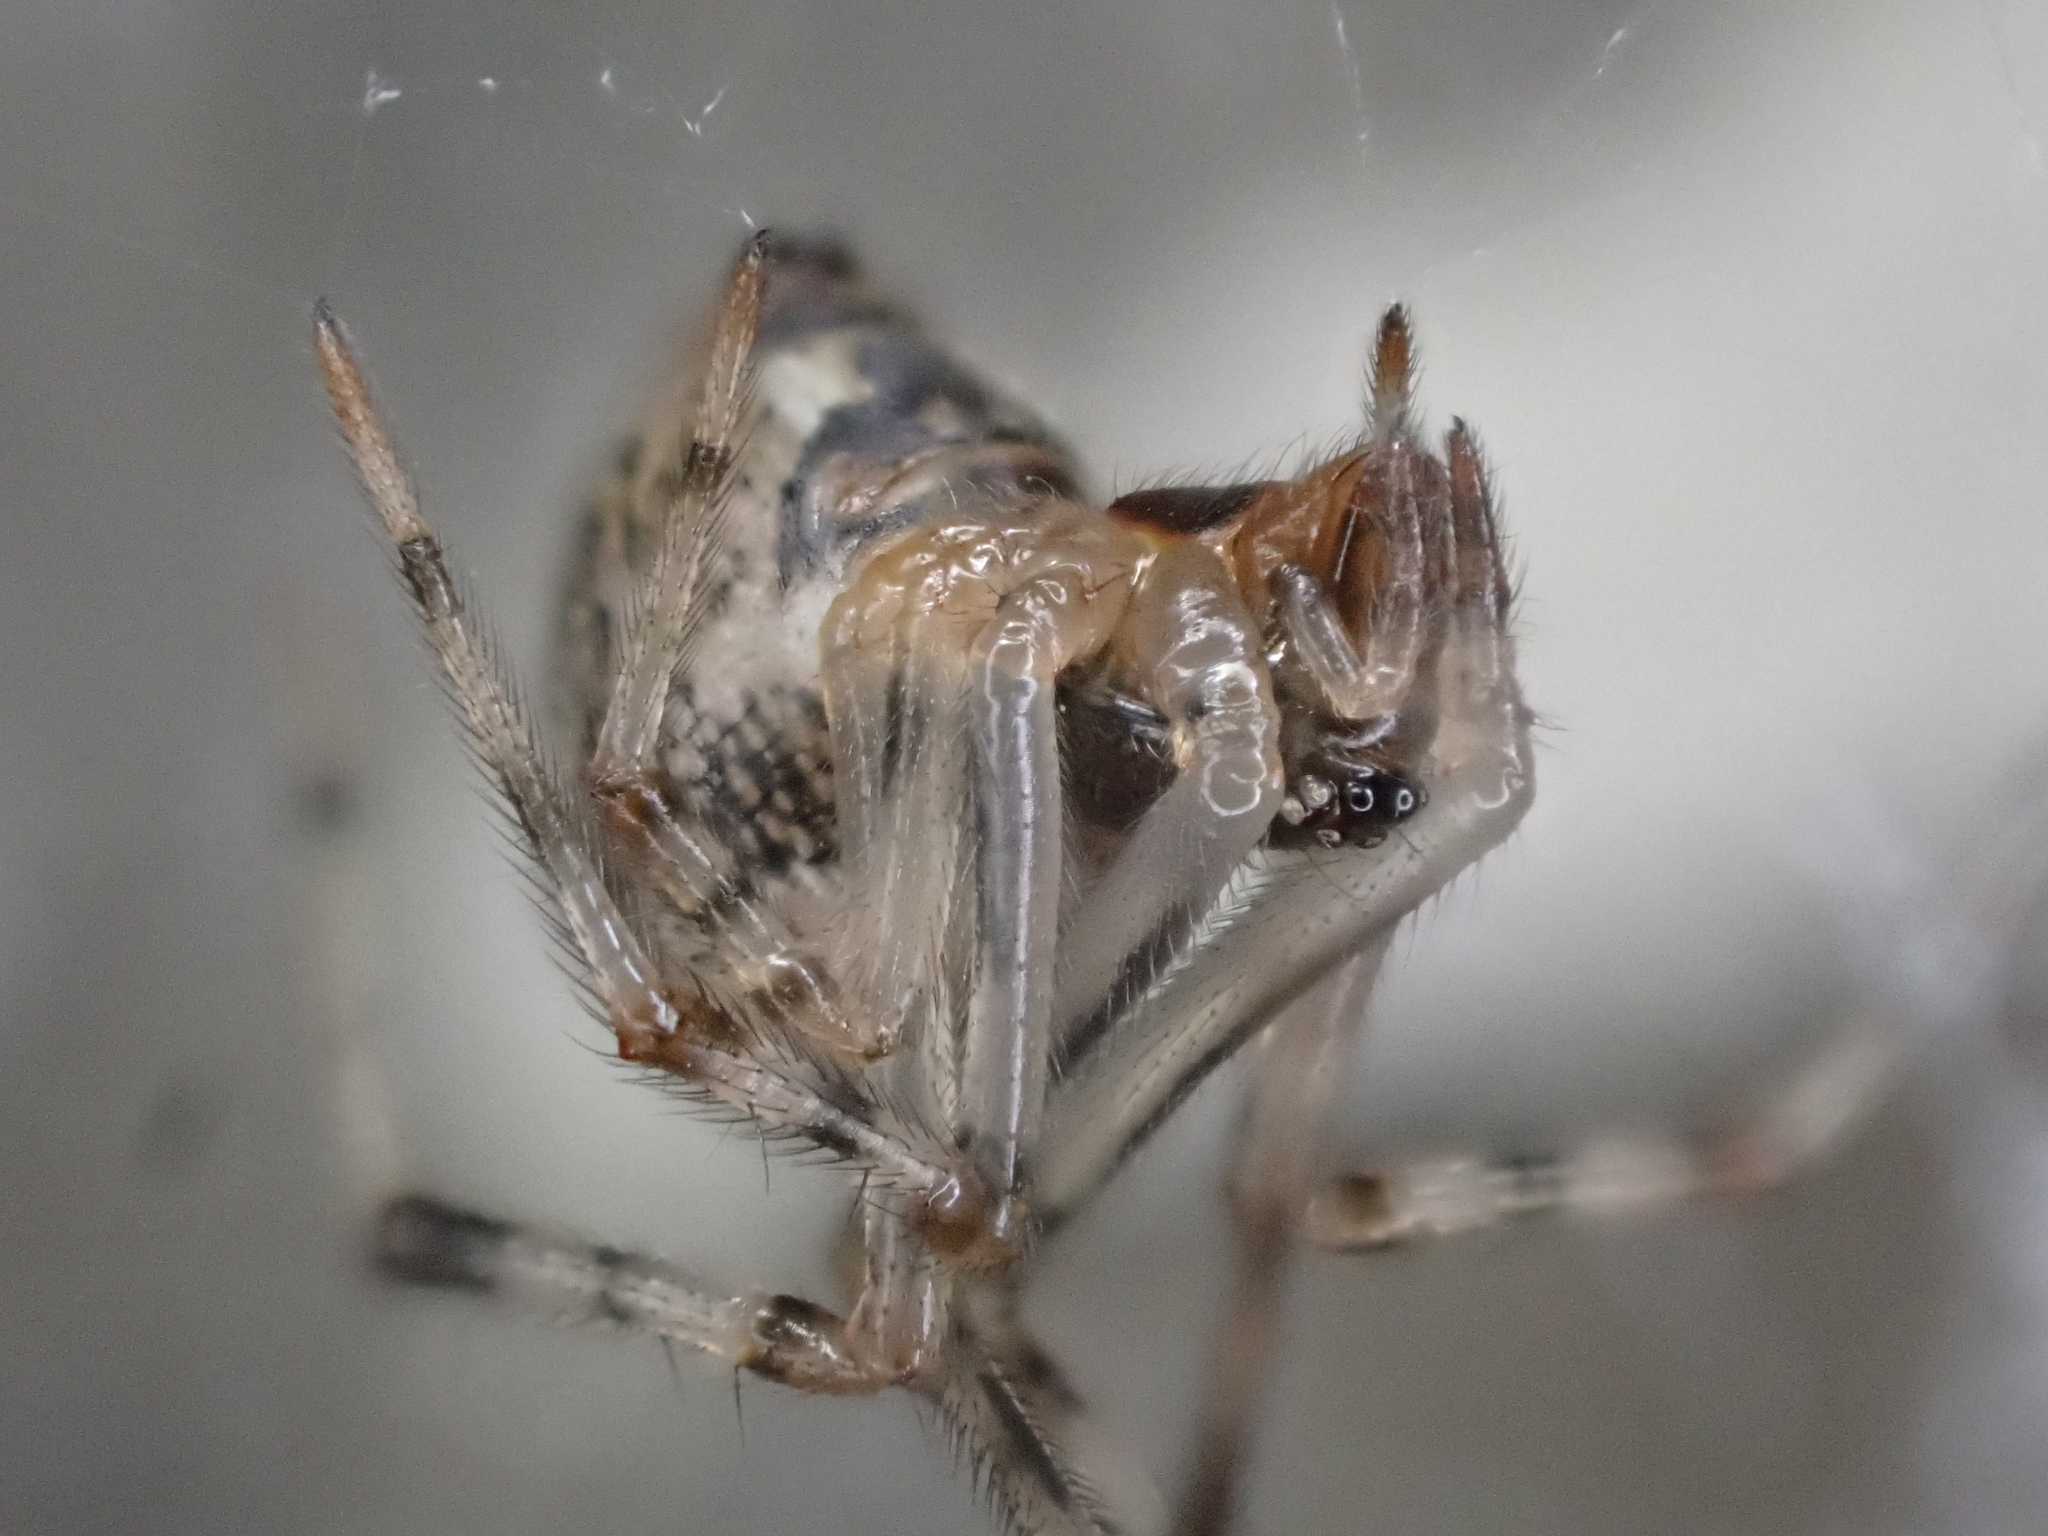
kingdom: Animalia
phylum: Arthropoda
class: Arachnida
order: Araneae
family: Theridiidae
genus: Parasteatoda
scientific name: Parasteatoda tepidariorum
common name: Common house spider
